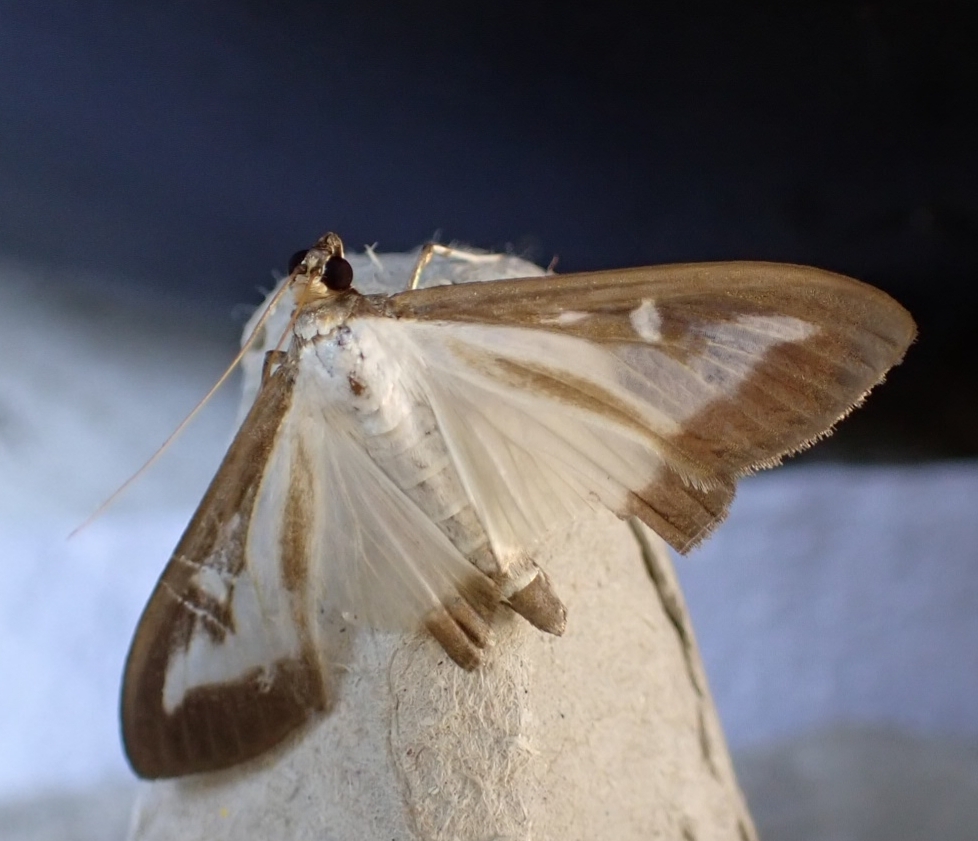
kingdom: Animalia
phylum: Arthropoda
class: Insecta
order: Lepidoptera
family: Crambidae
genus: Cydalima
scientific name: Cydalima perspectalis
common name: Box tree moth
